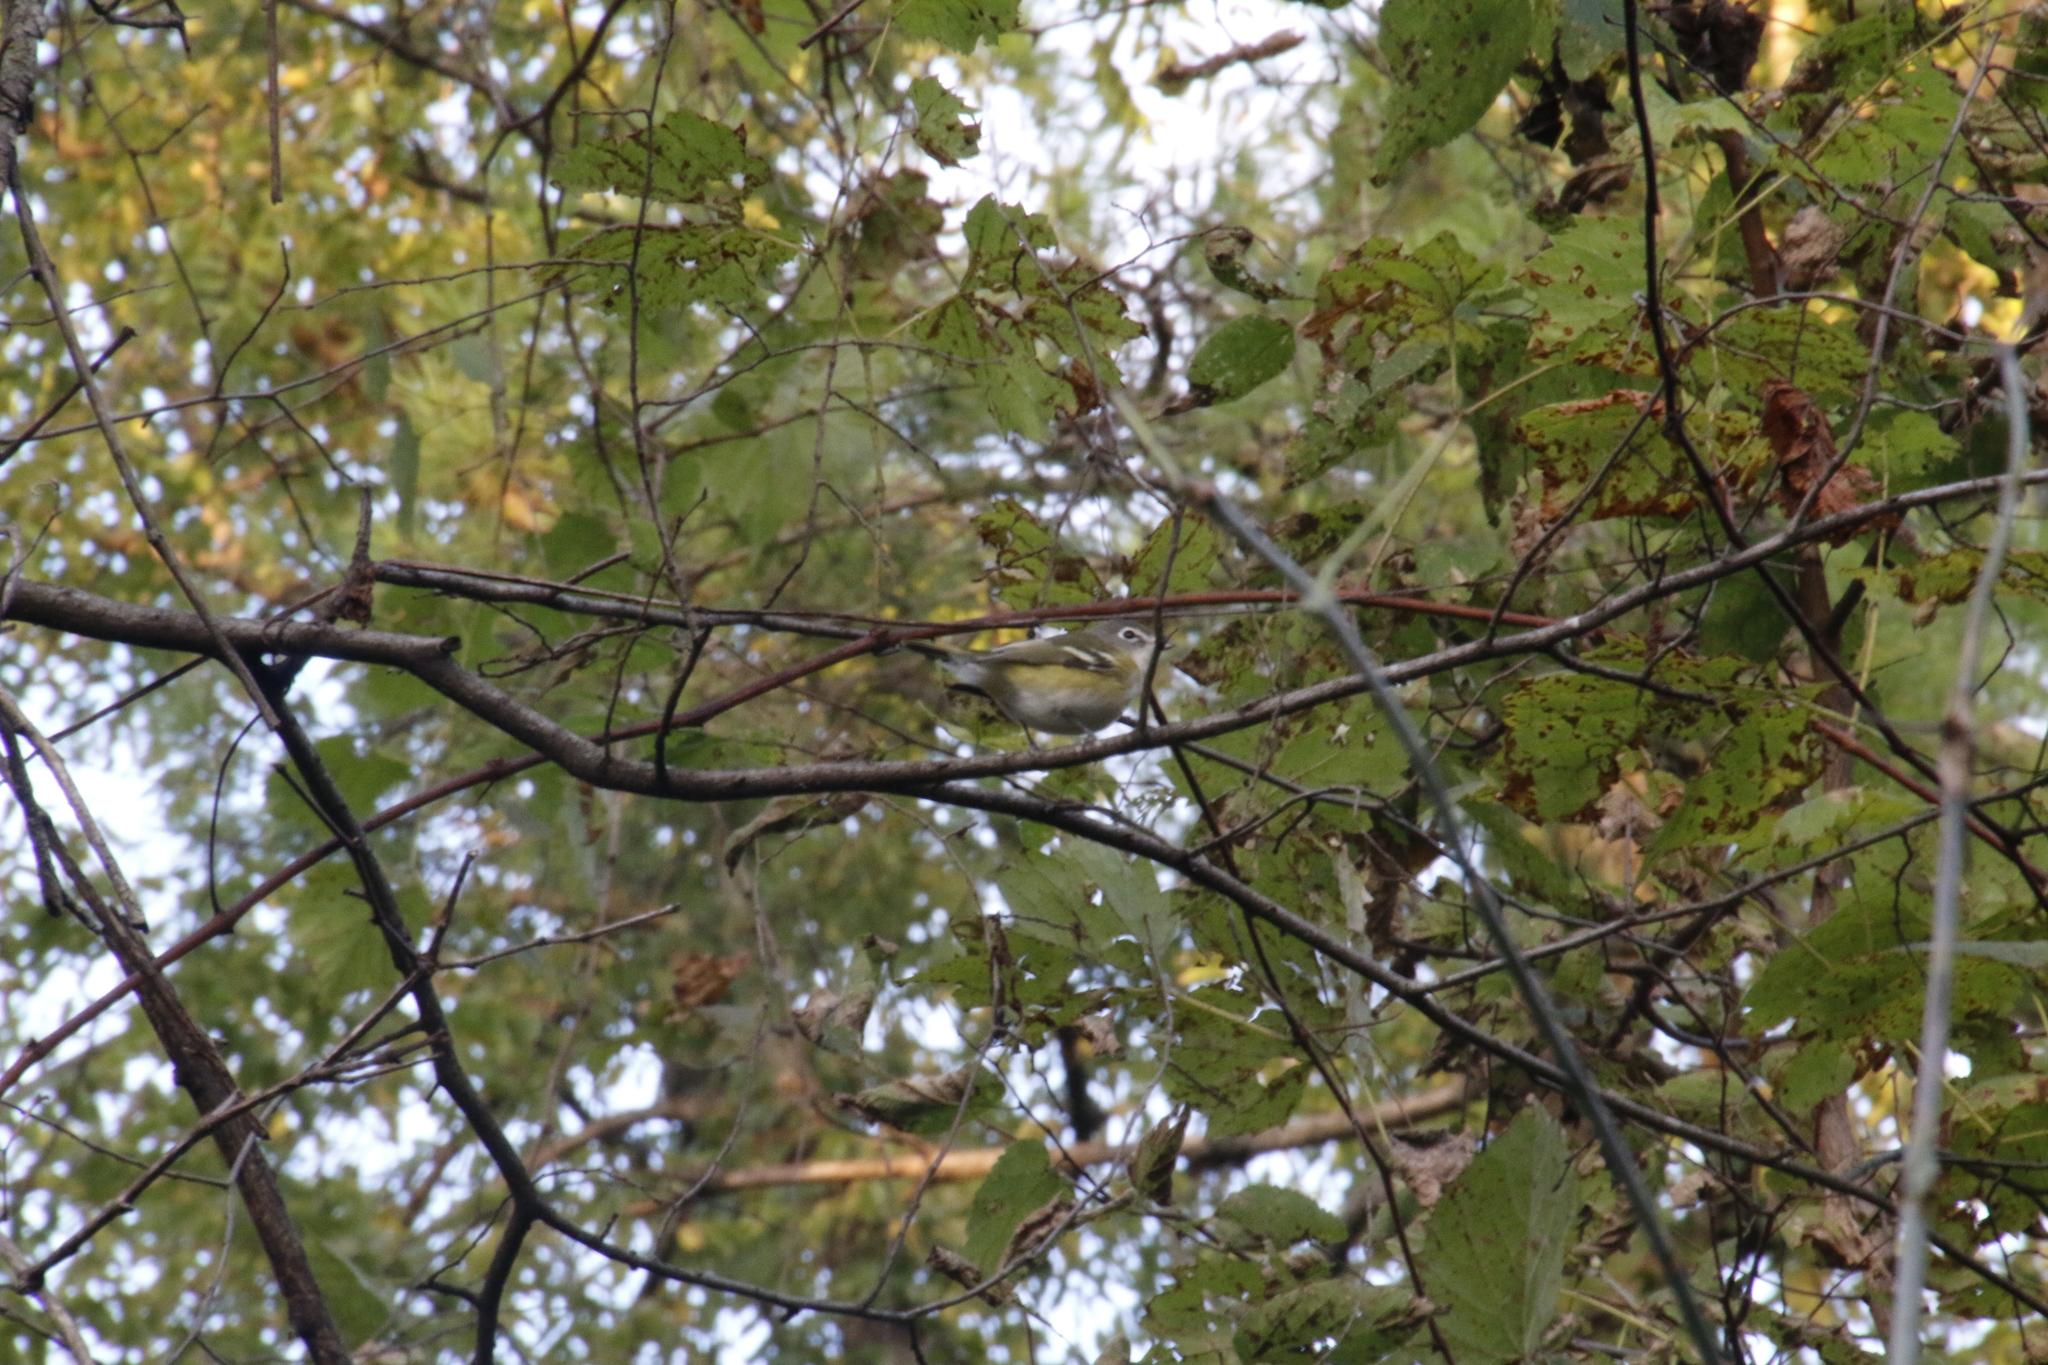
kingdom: Animalia
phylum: Chordata
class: Aves
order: Passeriformes
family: Vireonidae
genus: Vireo
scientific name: Vireo solitarius
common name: Blue-headed vireo
